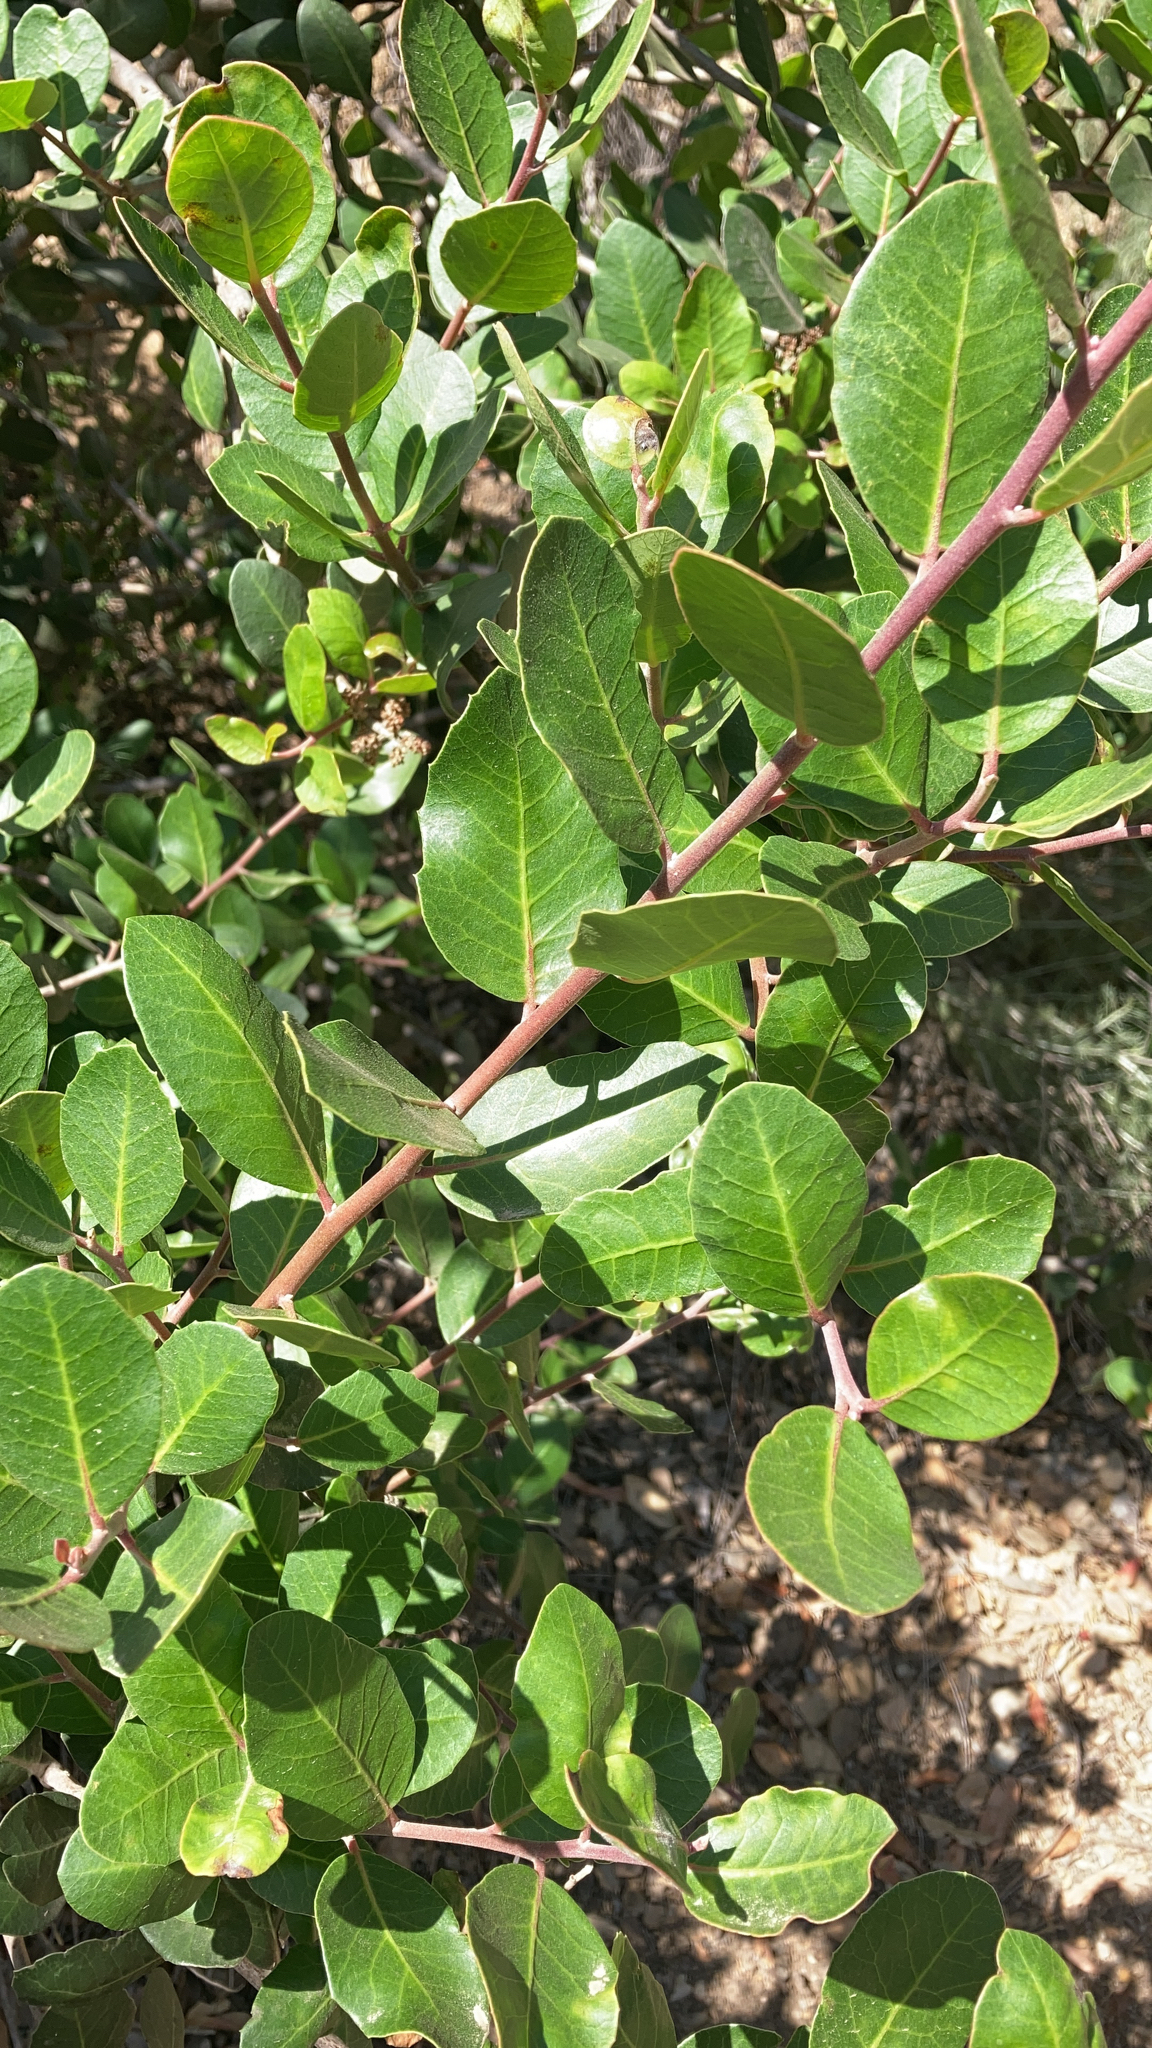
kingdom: Plantae
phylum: Tracheophyta
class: Magnoliopsida
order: Sapindales
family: Anacardiaceae
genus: Rhus
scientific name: Rhus integrifolia
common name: Lemonade sumac
